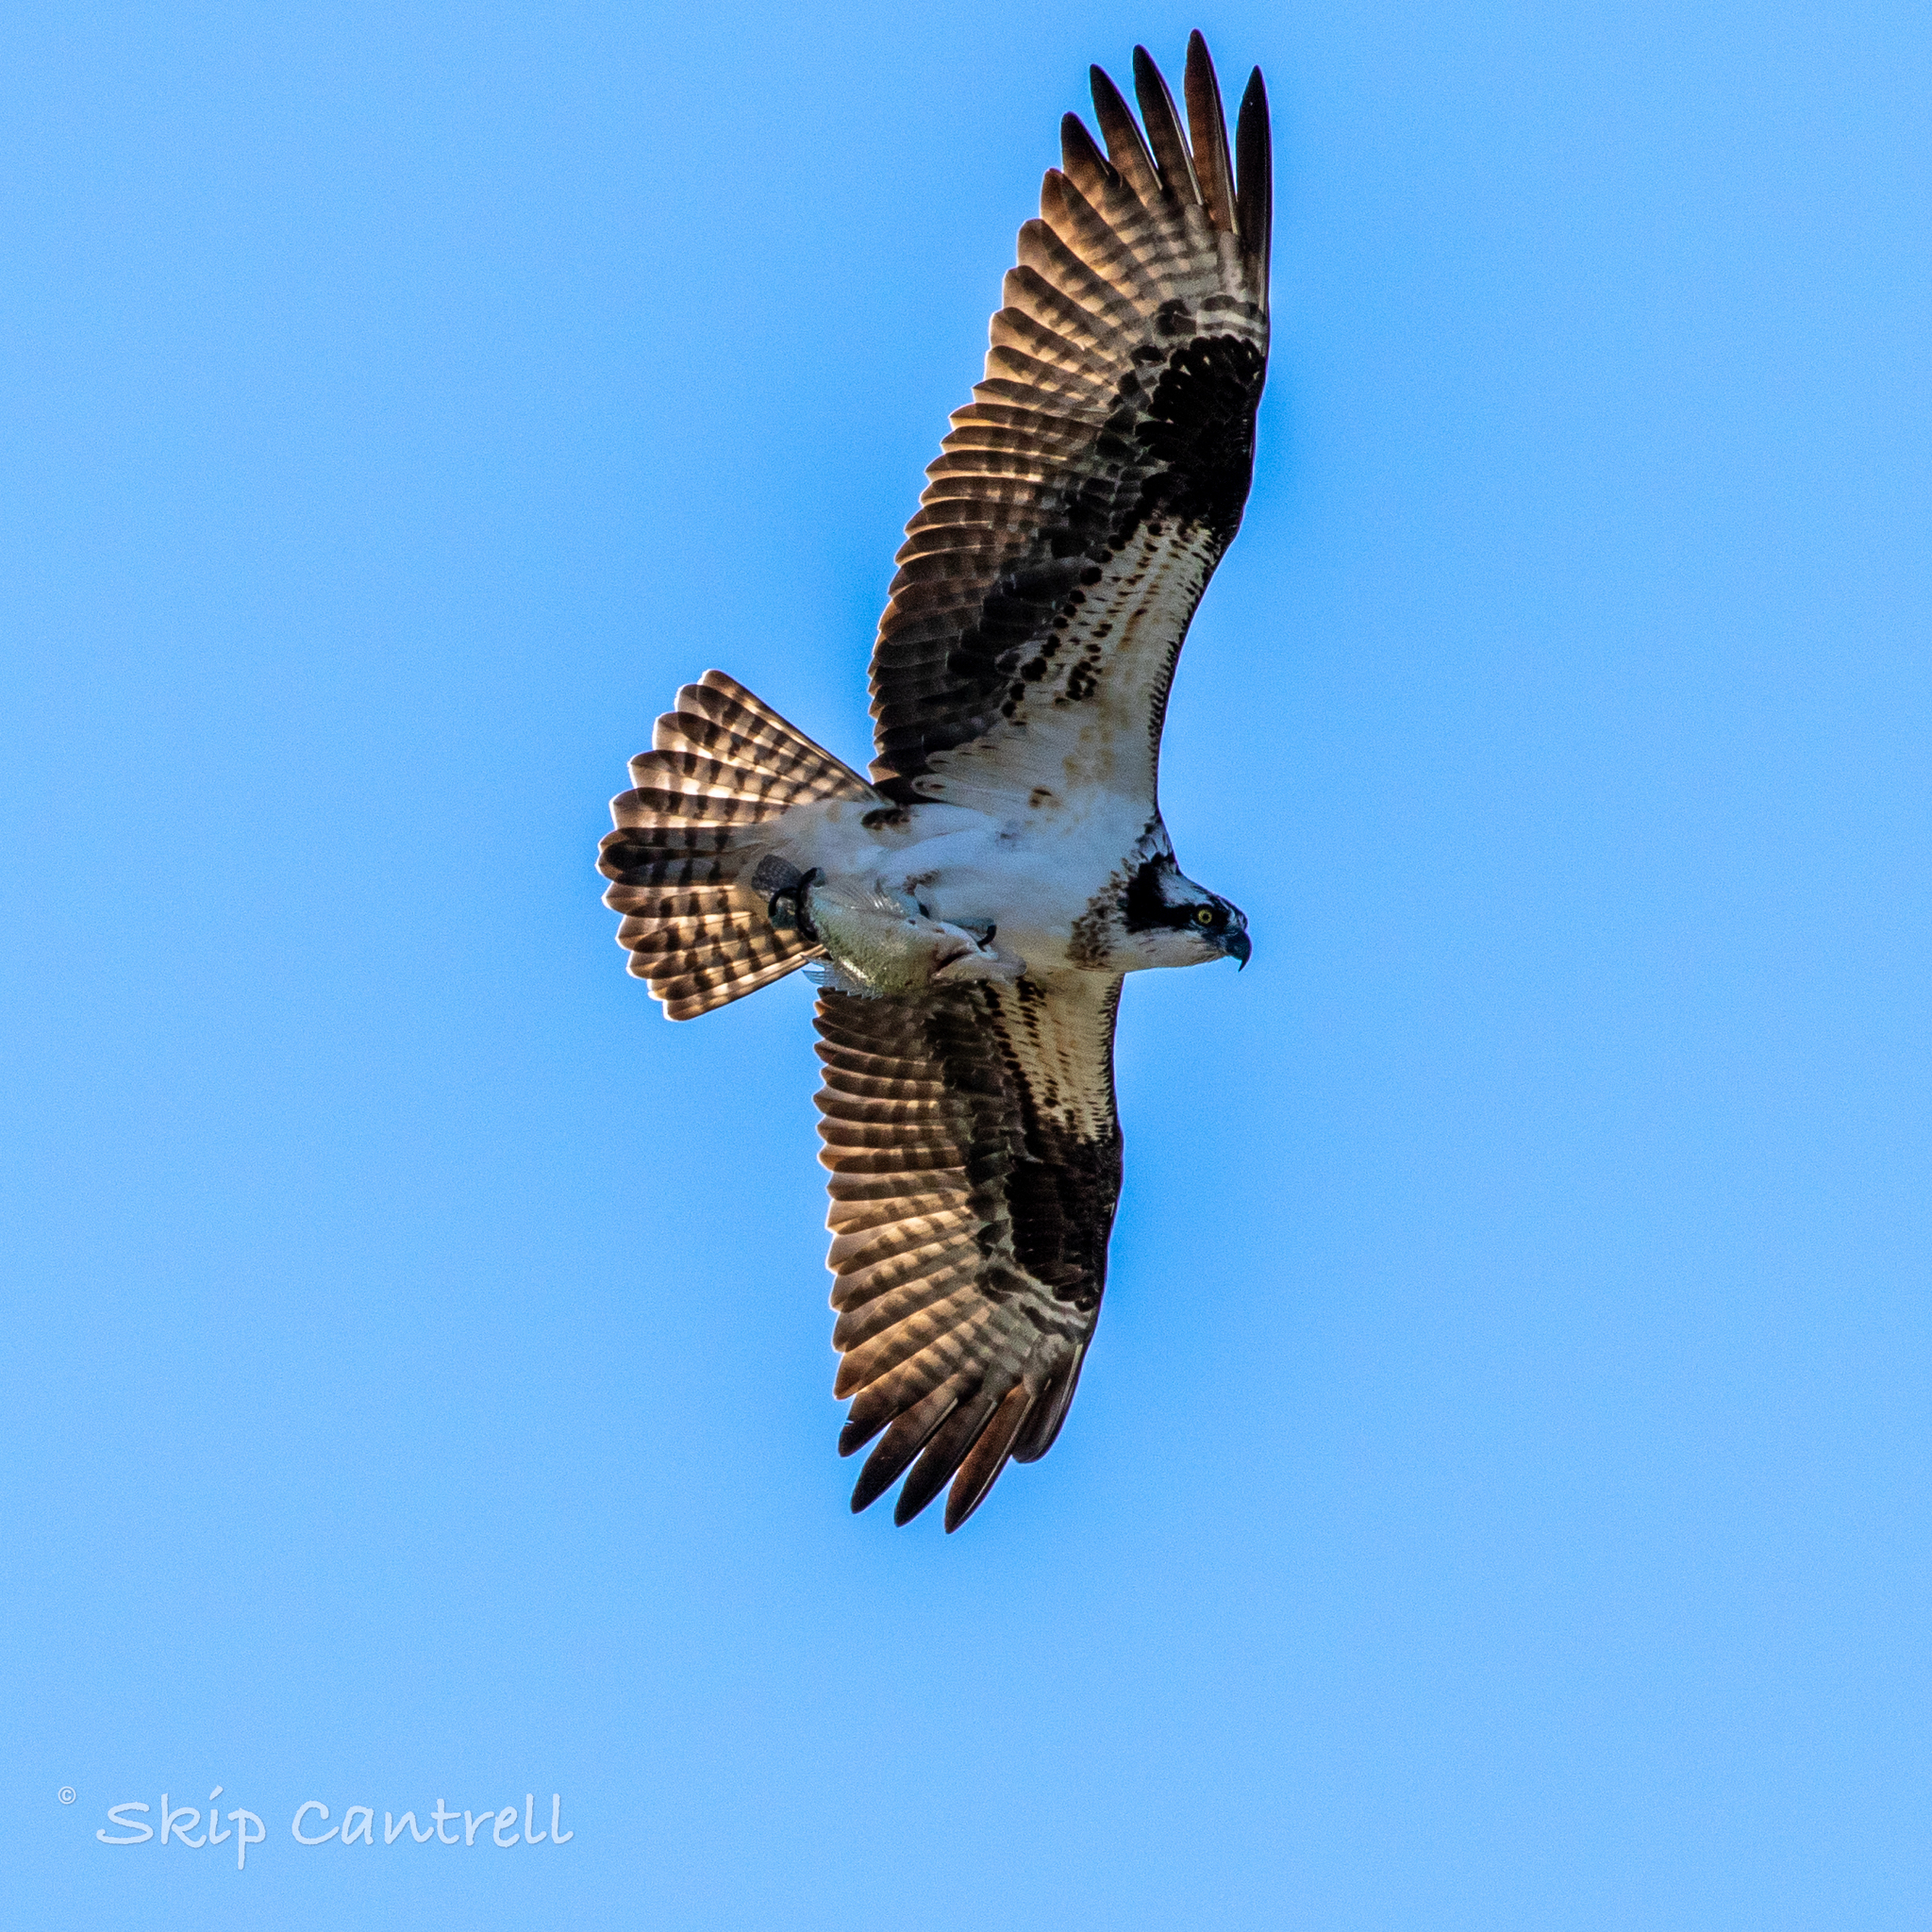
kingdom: Animalia
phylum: Chordata
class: Aves
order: Accipitriformes
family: Pandionidae
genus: Pandion
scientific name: Pandion haliaetus
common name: Osprey
